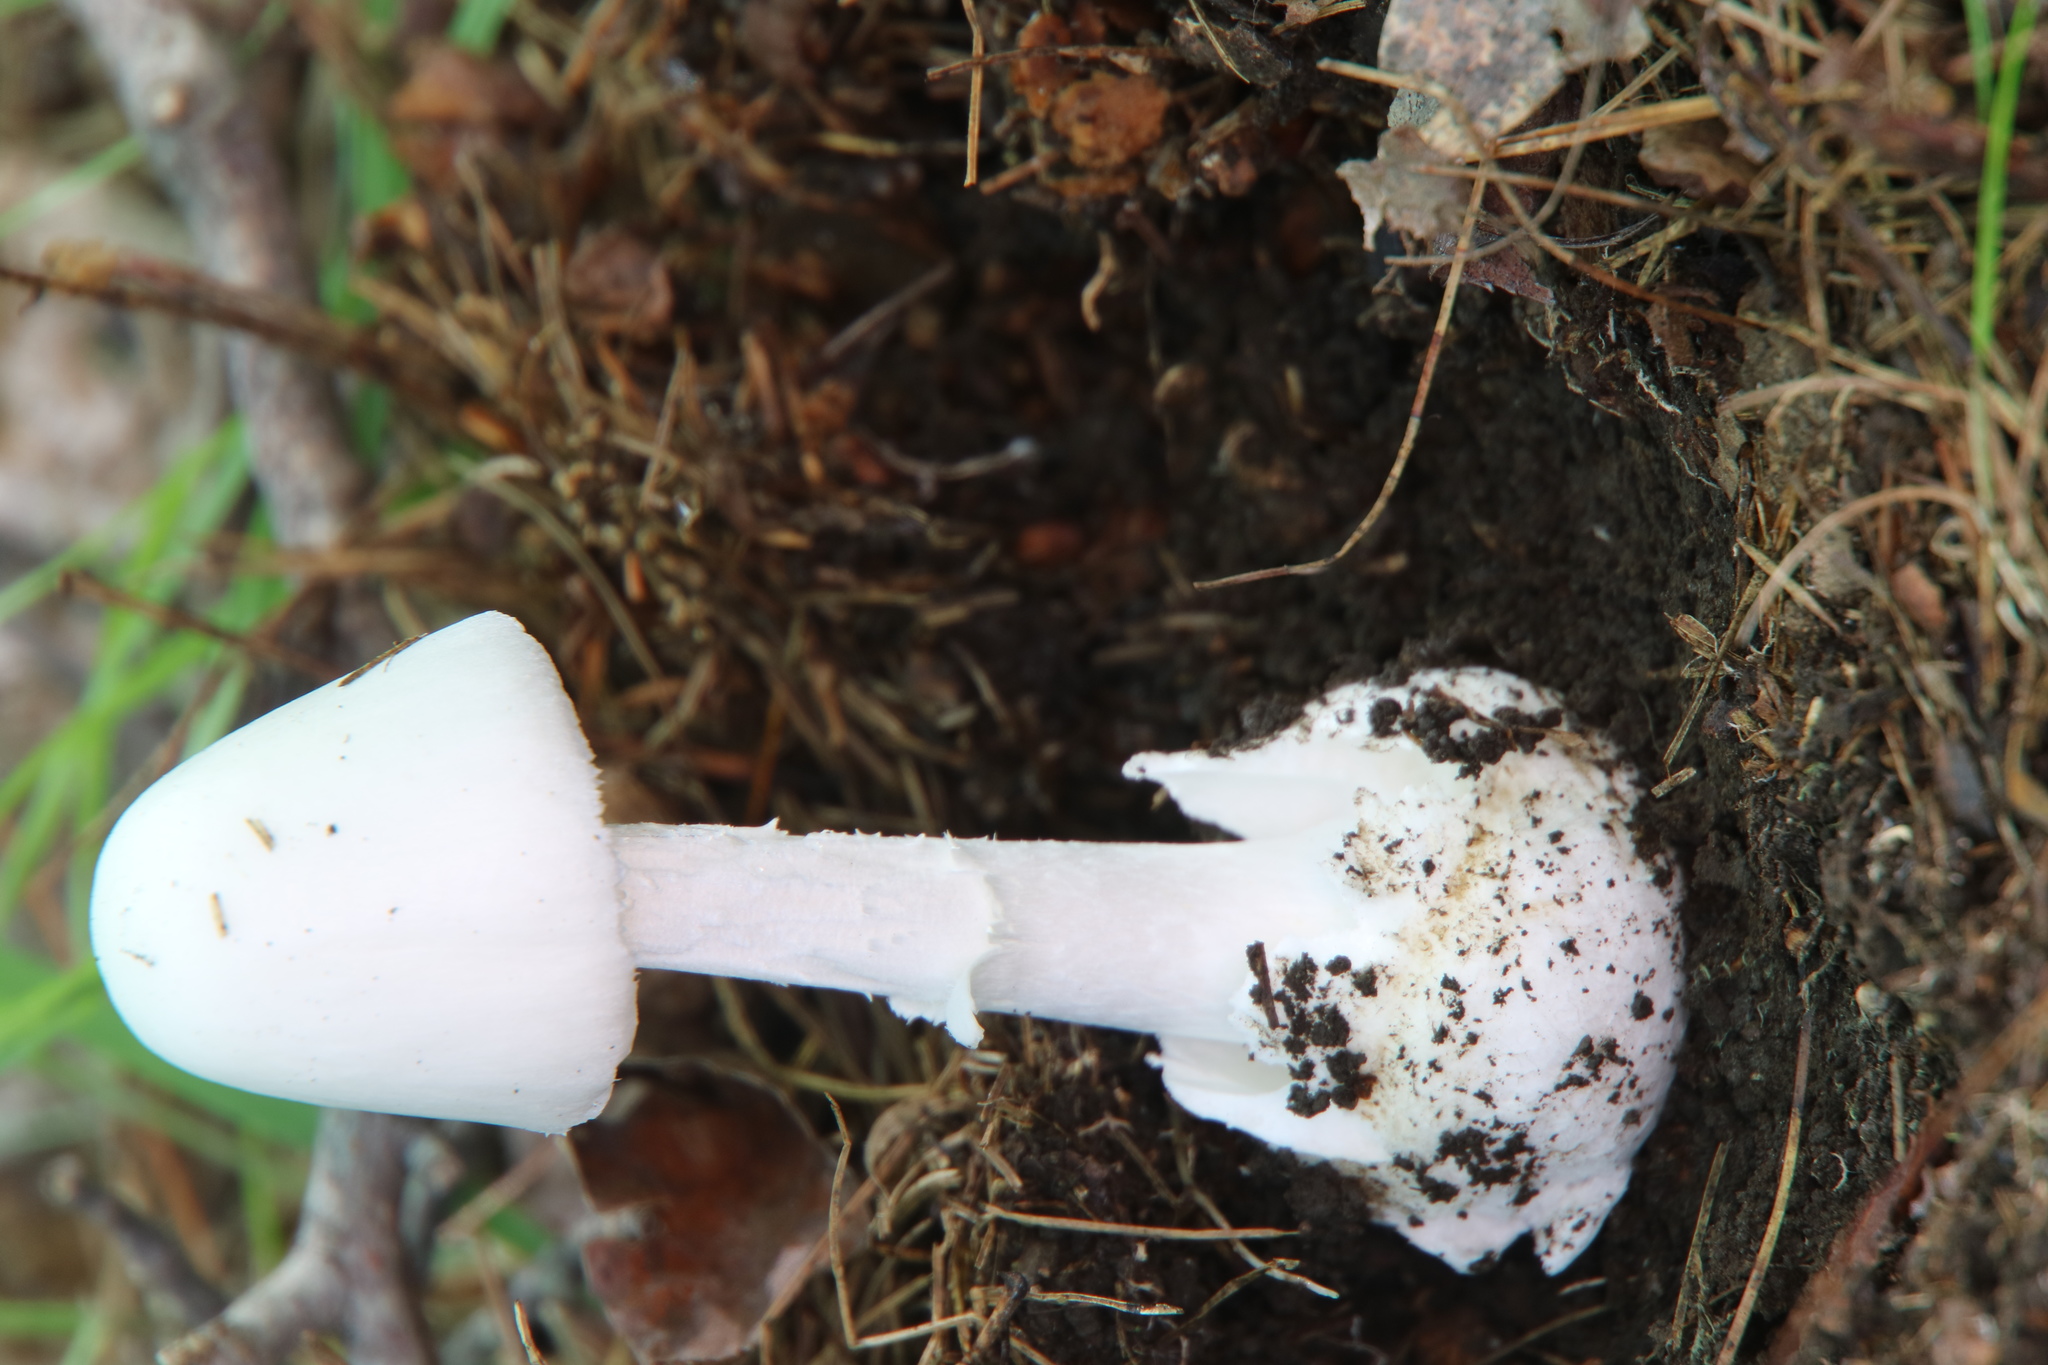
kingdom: Fungi
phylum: Basidiomycota
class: Agaricomycetes
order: Agaricales
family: Amanitaceae
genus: Amanita
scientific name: Amanita bisporigera
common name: Eastern north american destroying angel
